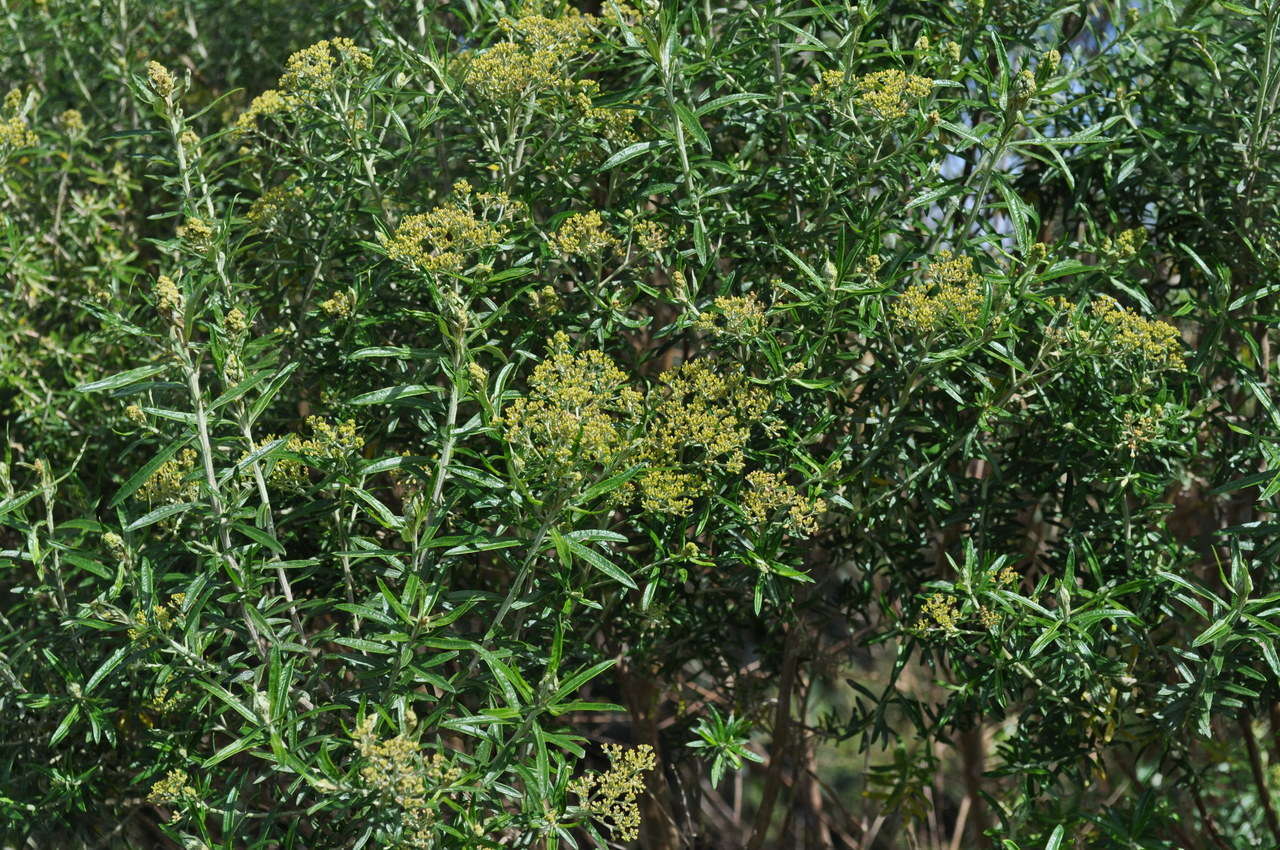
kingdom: Plantae
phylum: Tracheophyta
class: Magnoliopsida
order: Asterales
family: Asteraceae
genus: Ozothamnus
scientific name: Ozothamnus ferrugineus
